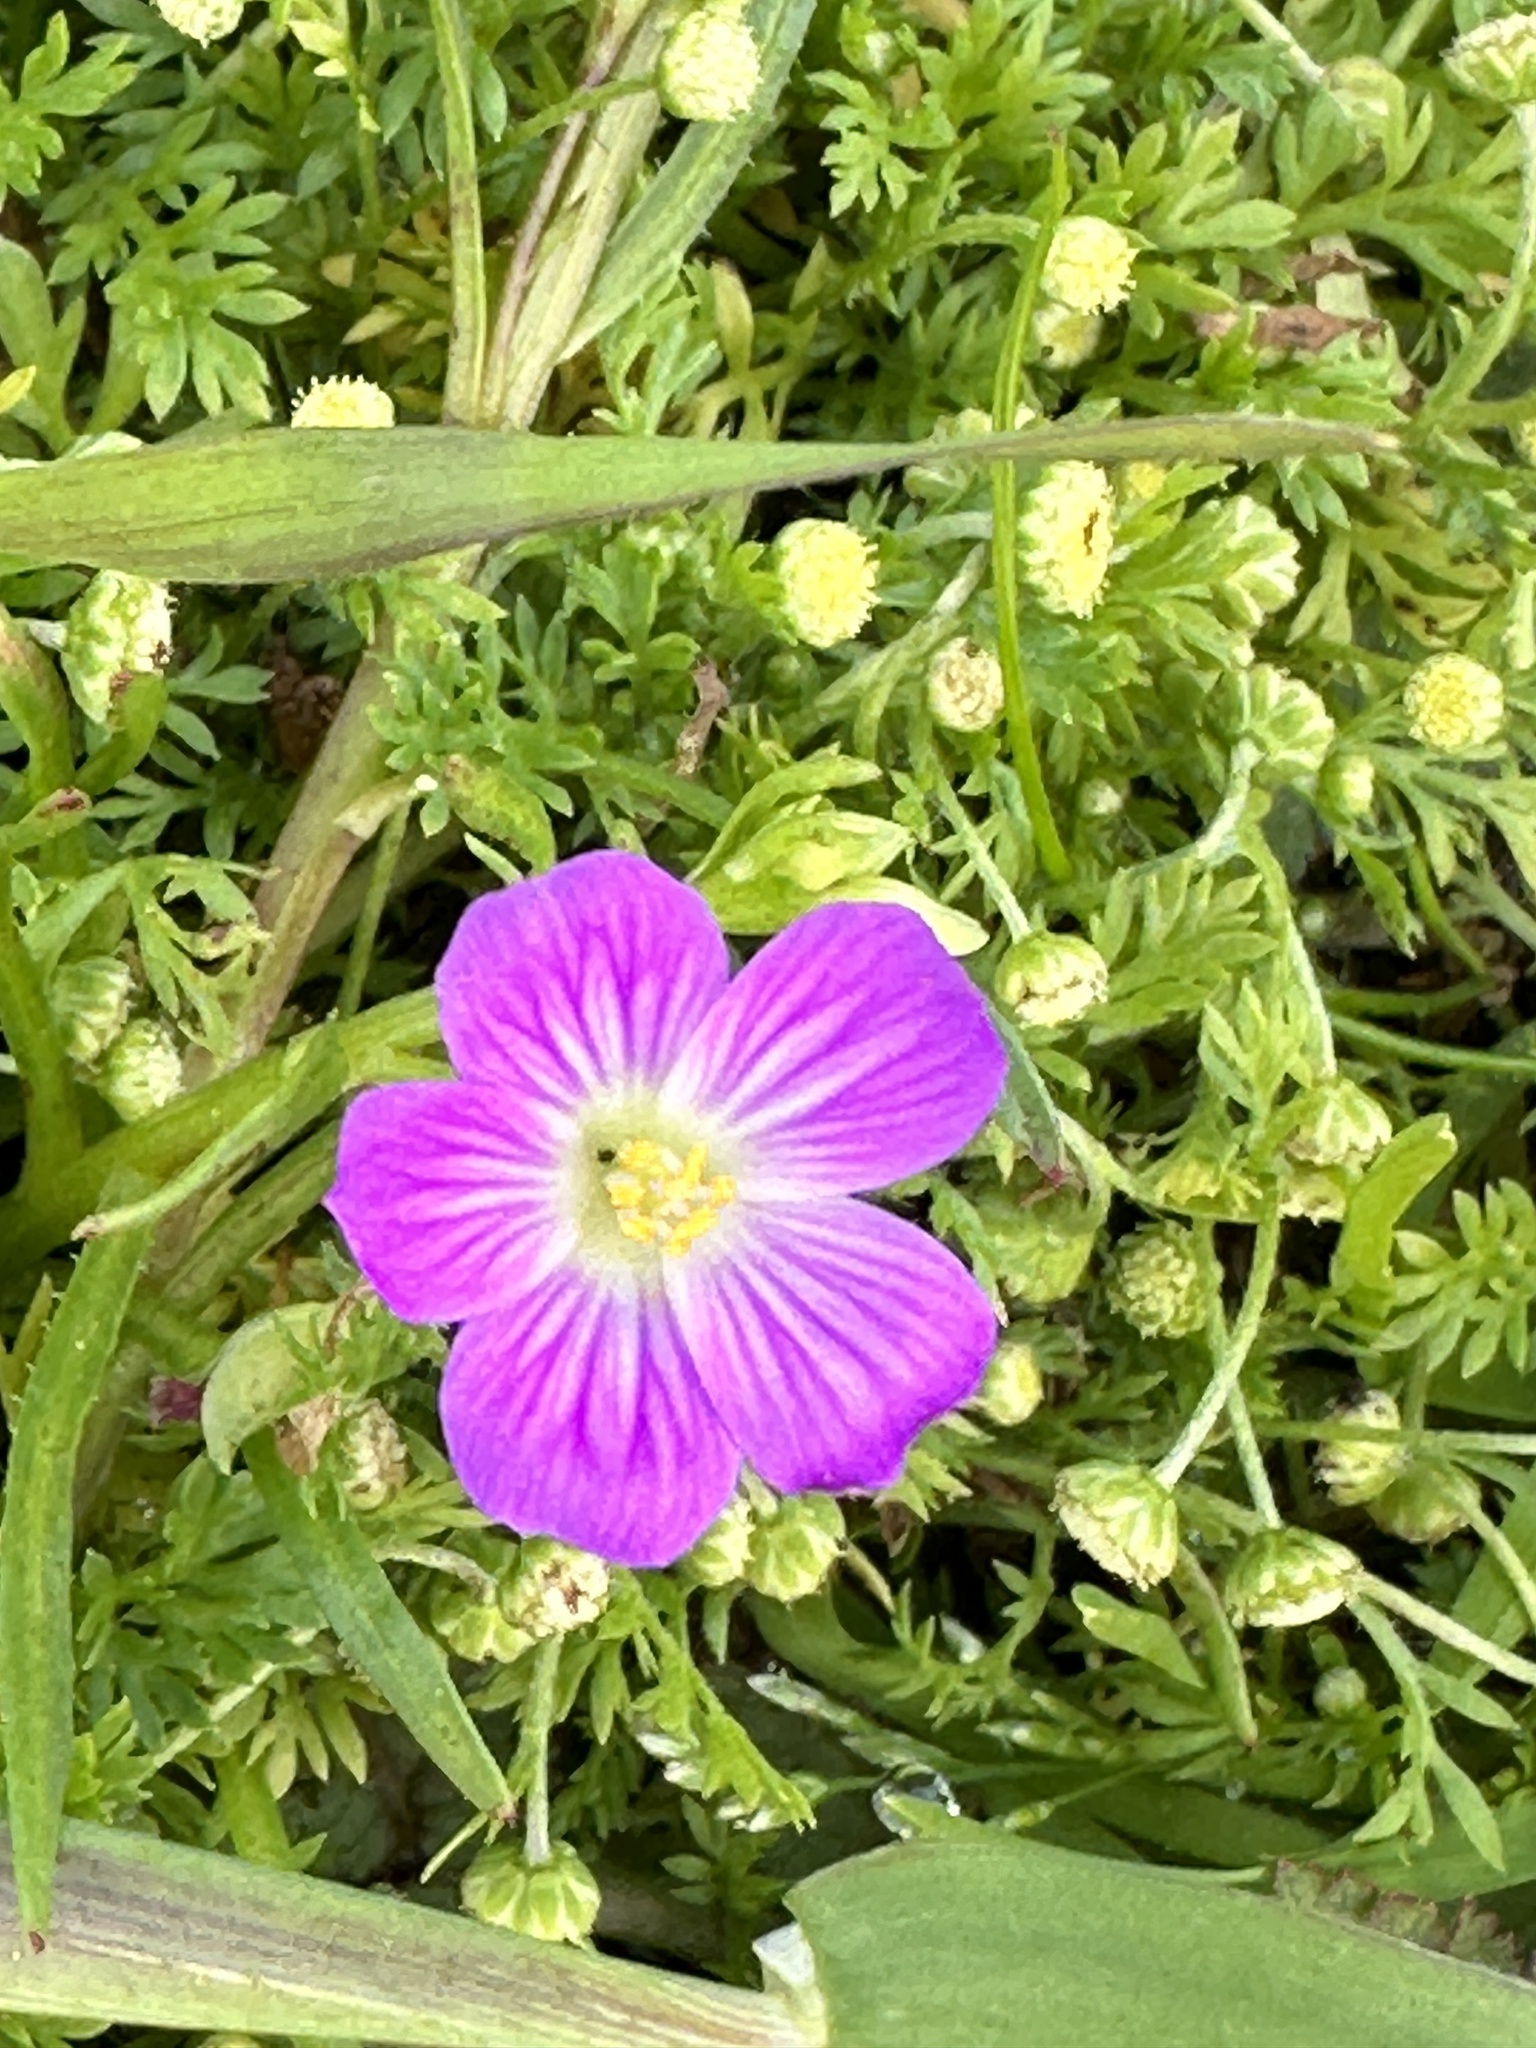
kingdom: Plantae
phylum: Tracheophyta
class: Magnoliopsida
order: Caryophyllales
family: Montiaceae
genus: Calandrinia
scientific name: Calandrinia menziesii
